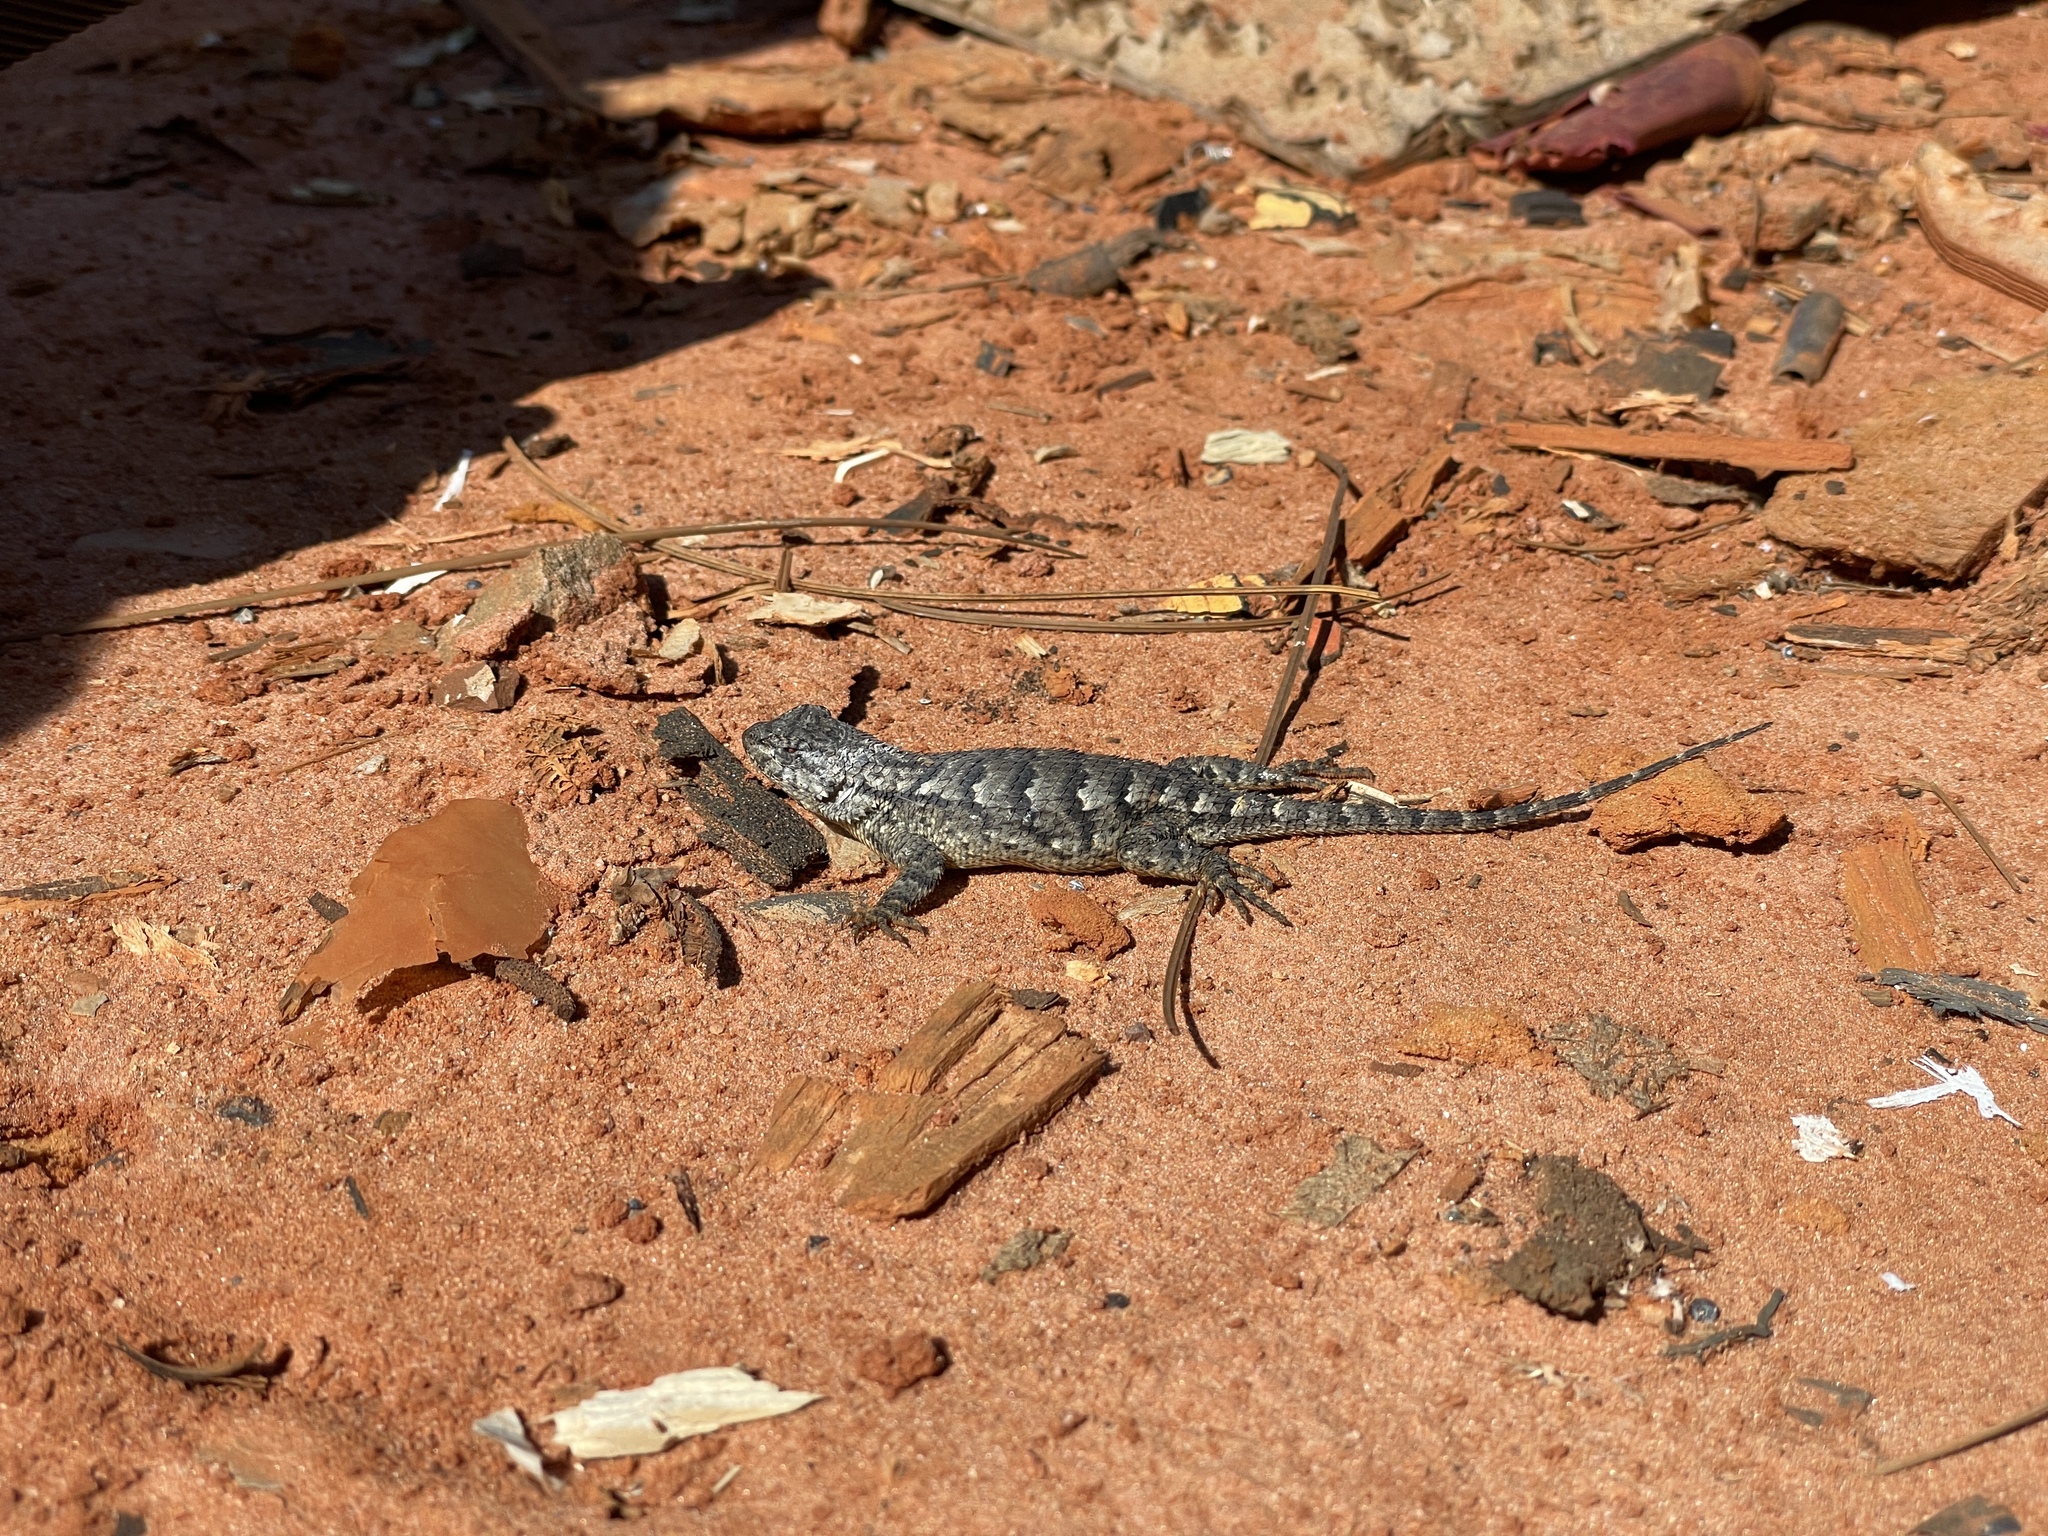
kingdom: Animalia
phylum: Chordata
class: Squamata
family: Phrynosomatidae
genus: Sceloporus
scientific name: Sceloporus undulatus
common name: Eastern fence lizard
